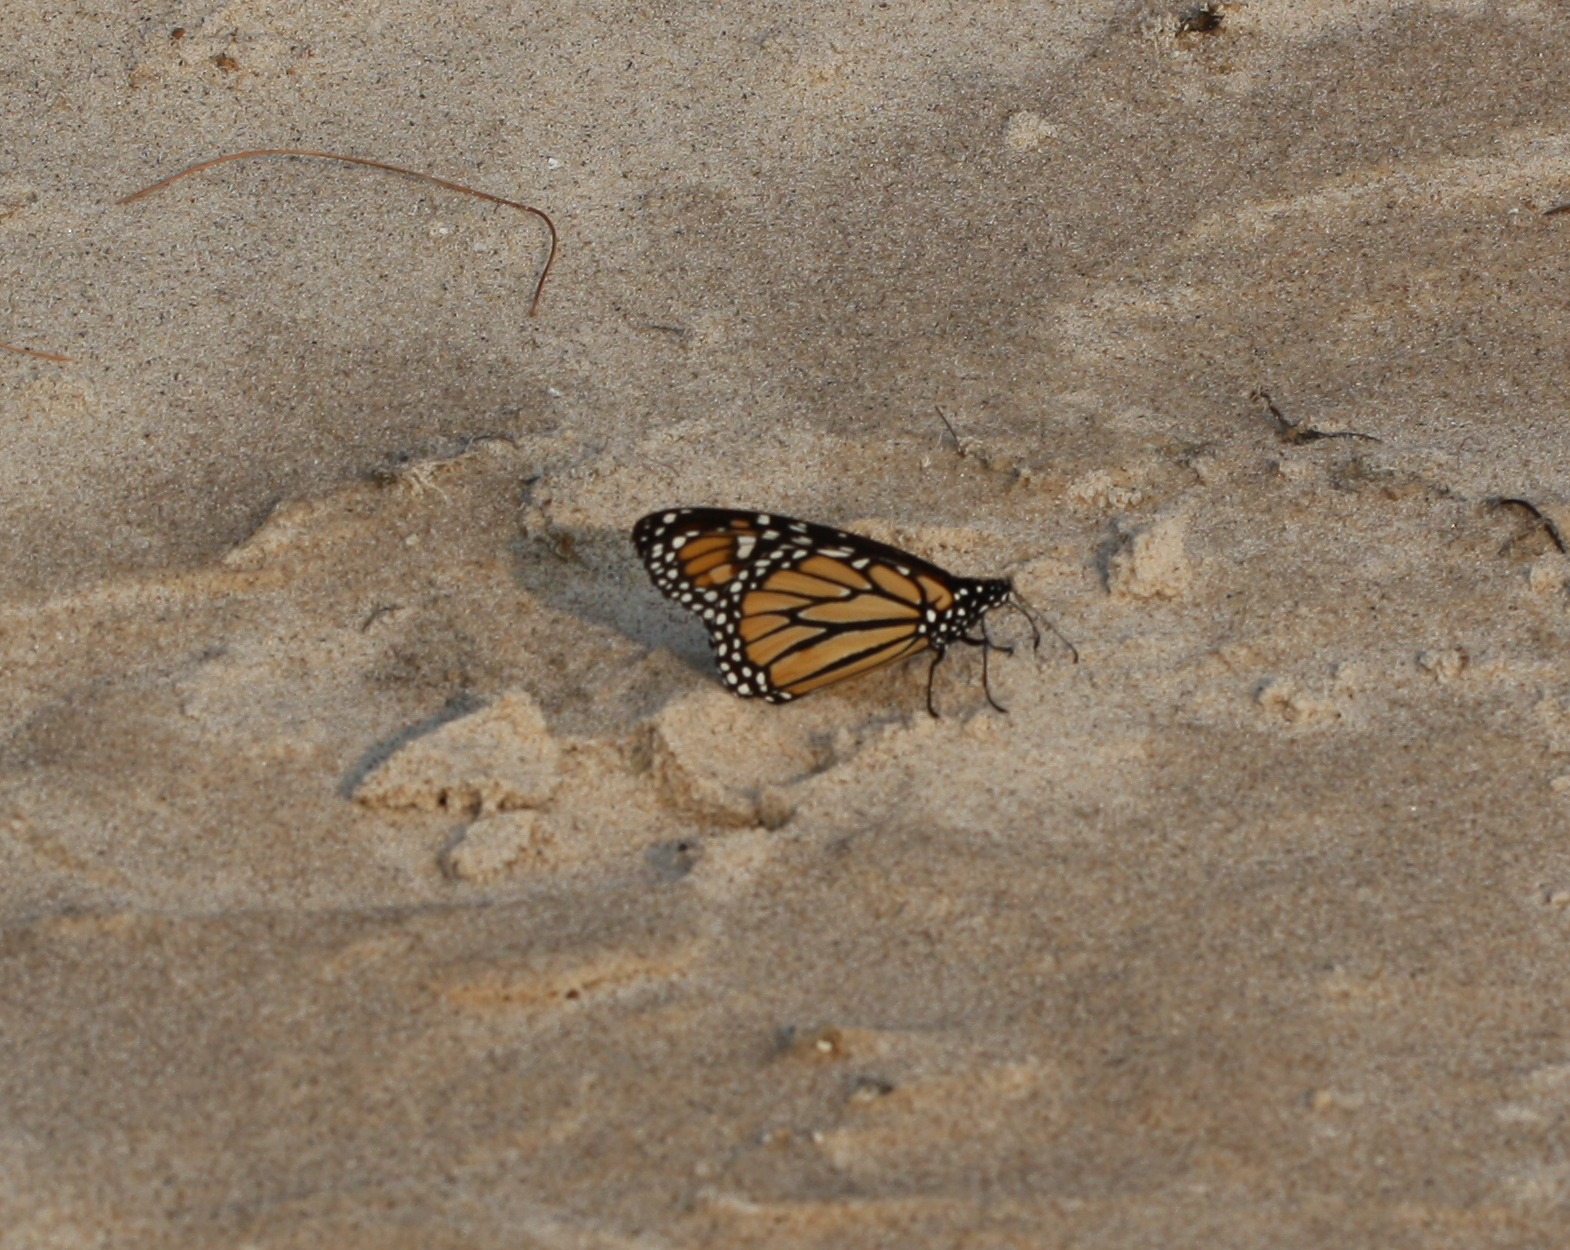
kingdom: Animalia
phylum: Arthropoda
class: Insecta
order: Lepidoptera
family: Nymphalidae
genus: Danaus
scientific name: Danaus plexippus
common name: Monarch
